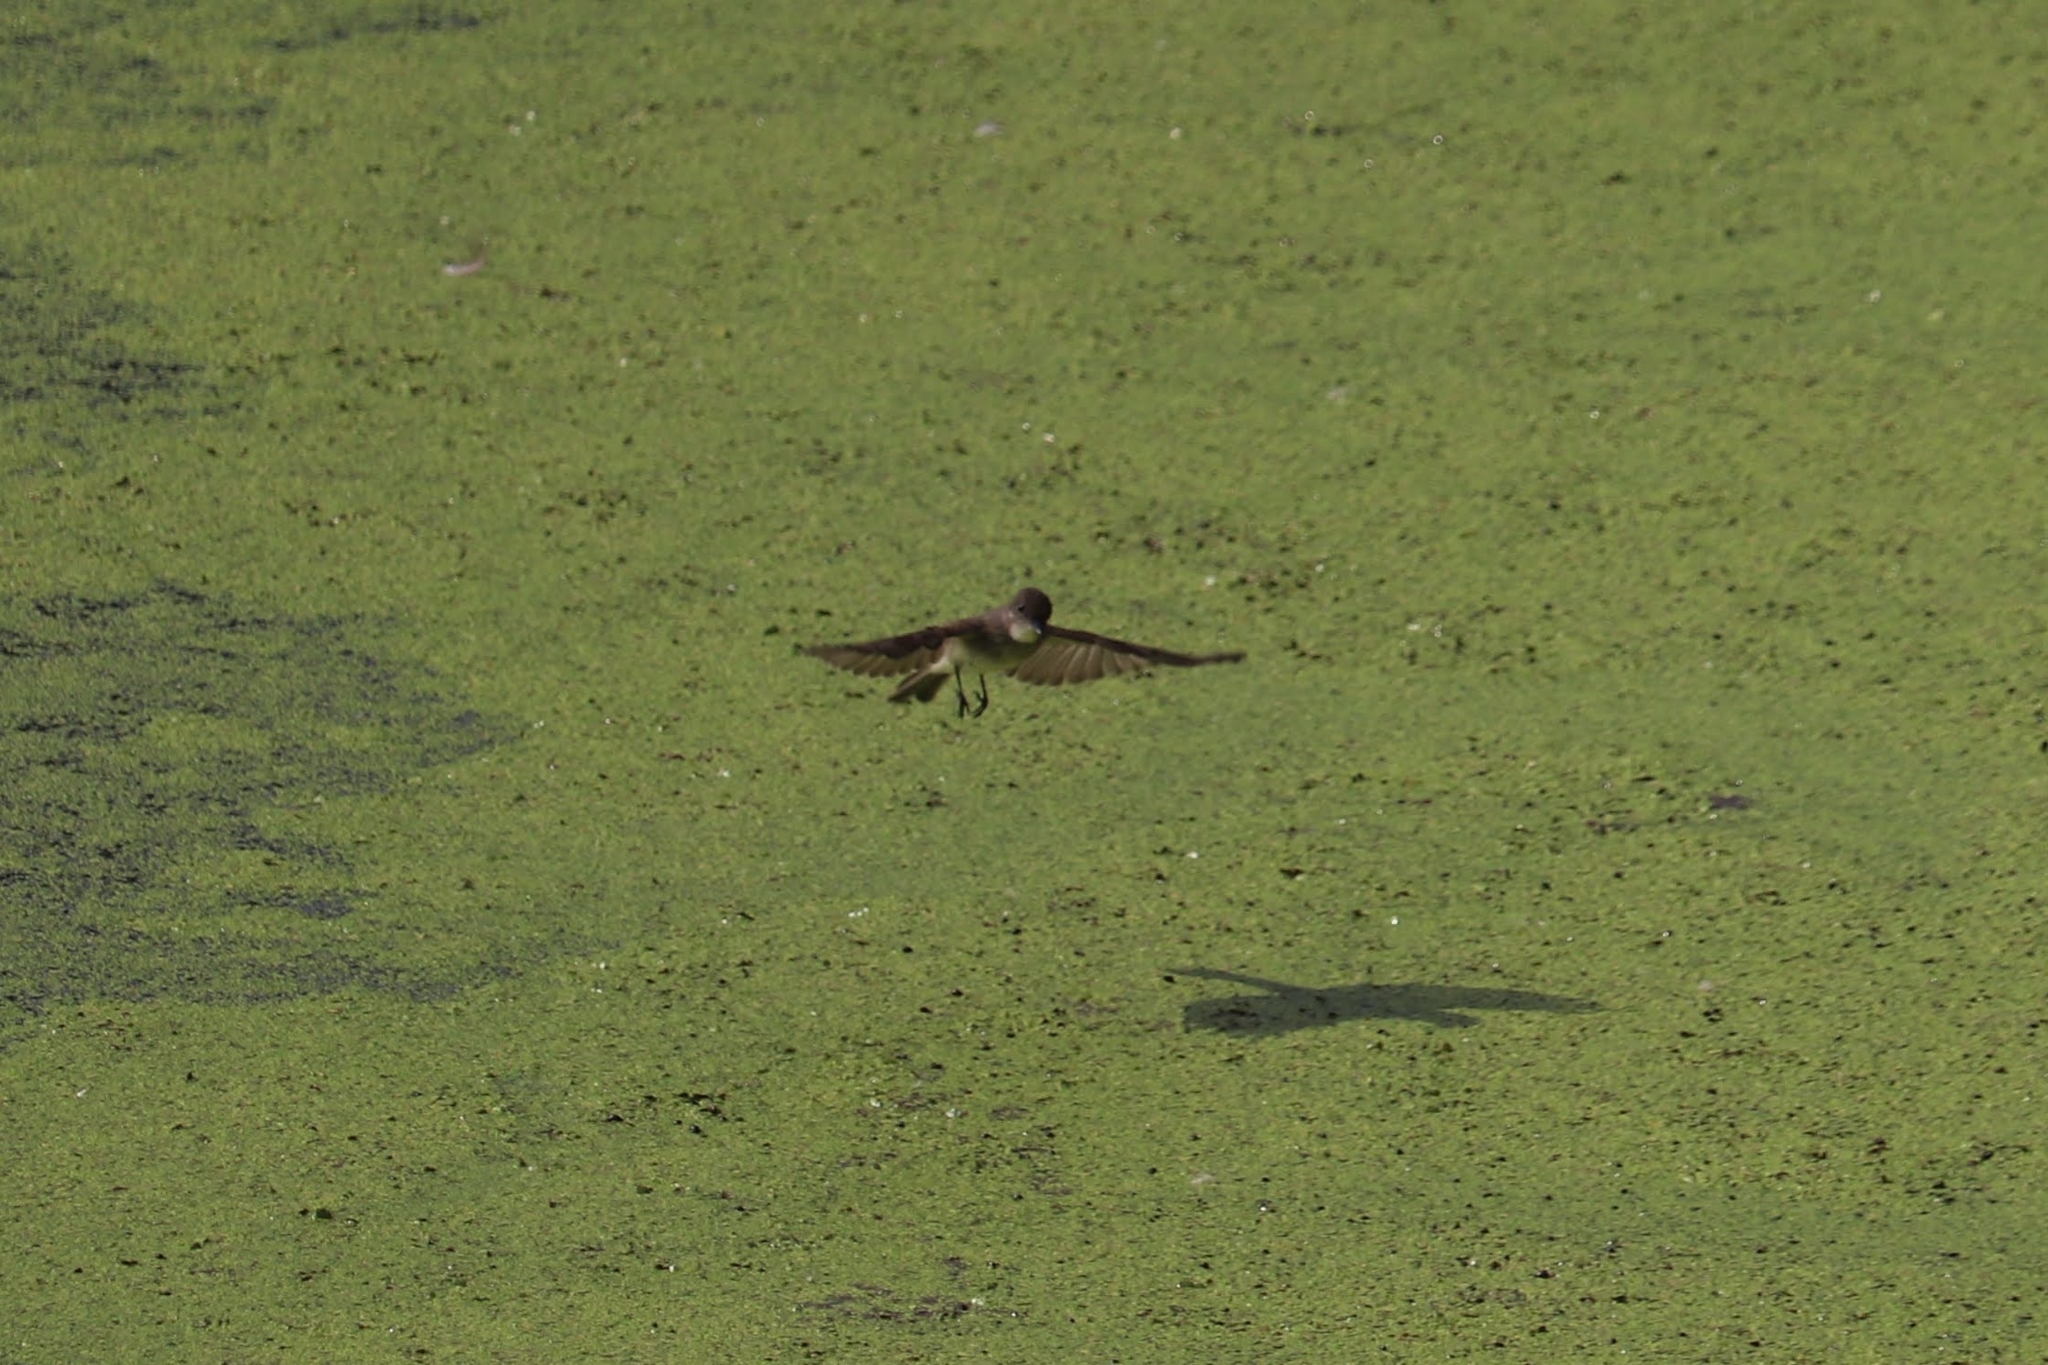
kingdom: Animalia
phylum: Chordata
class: Aves
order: Passeriformes
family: Tyrannidae
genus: Sayornis
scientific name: Sayornis phoebe
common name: Eastern phoebe
